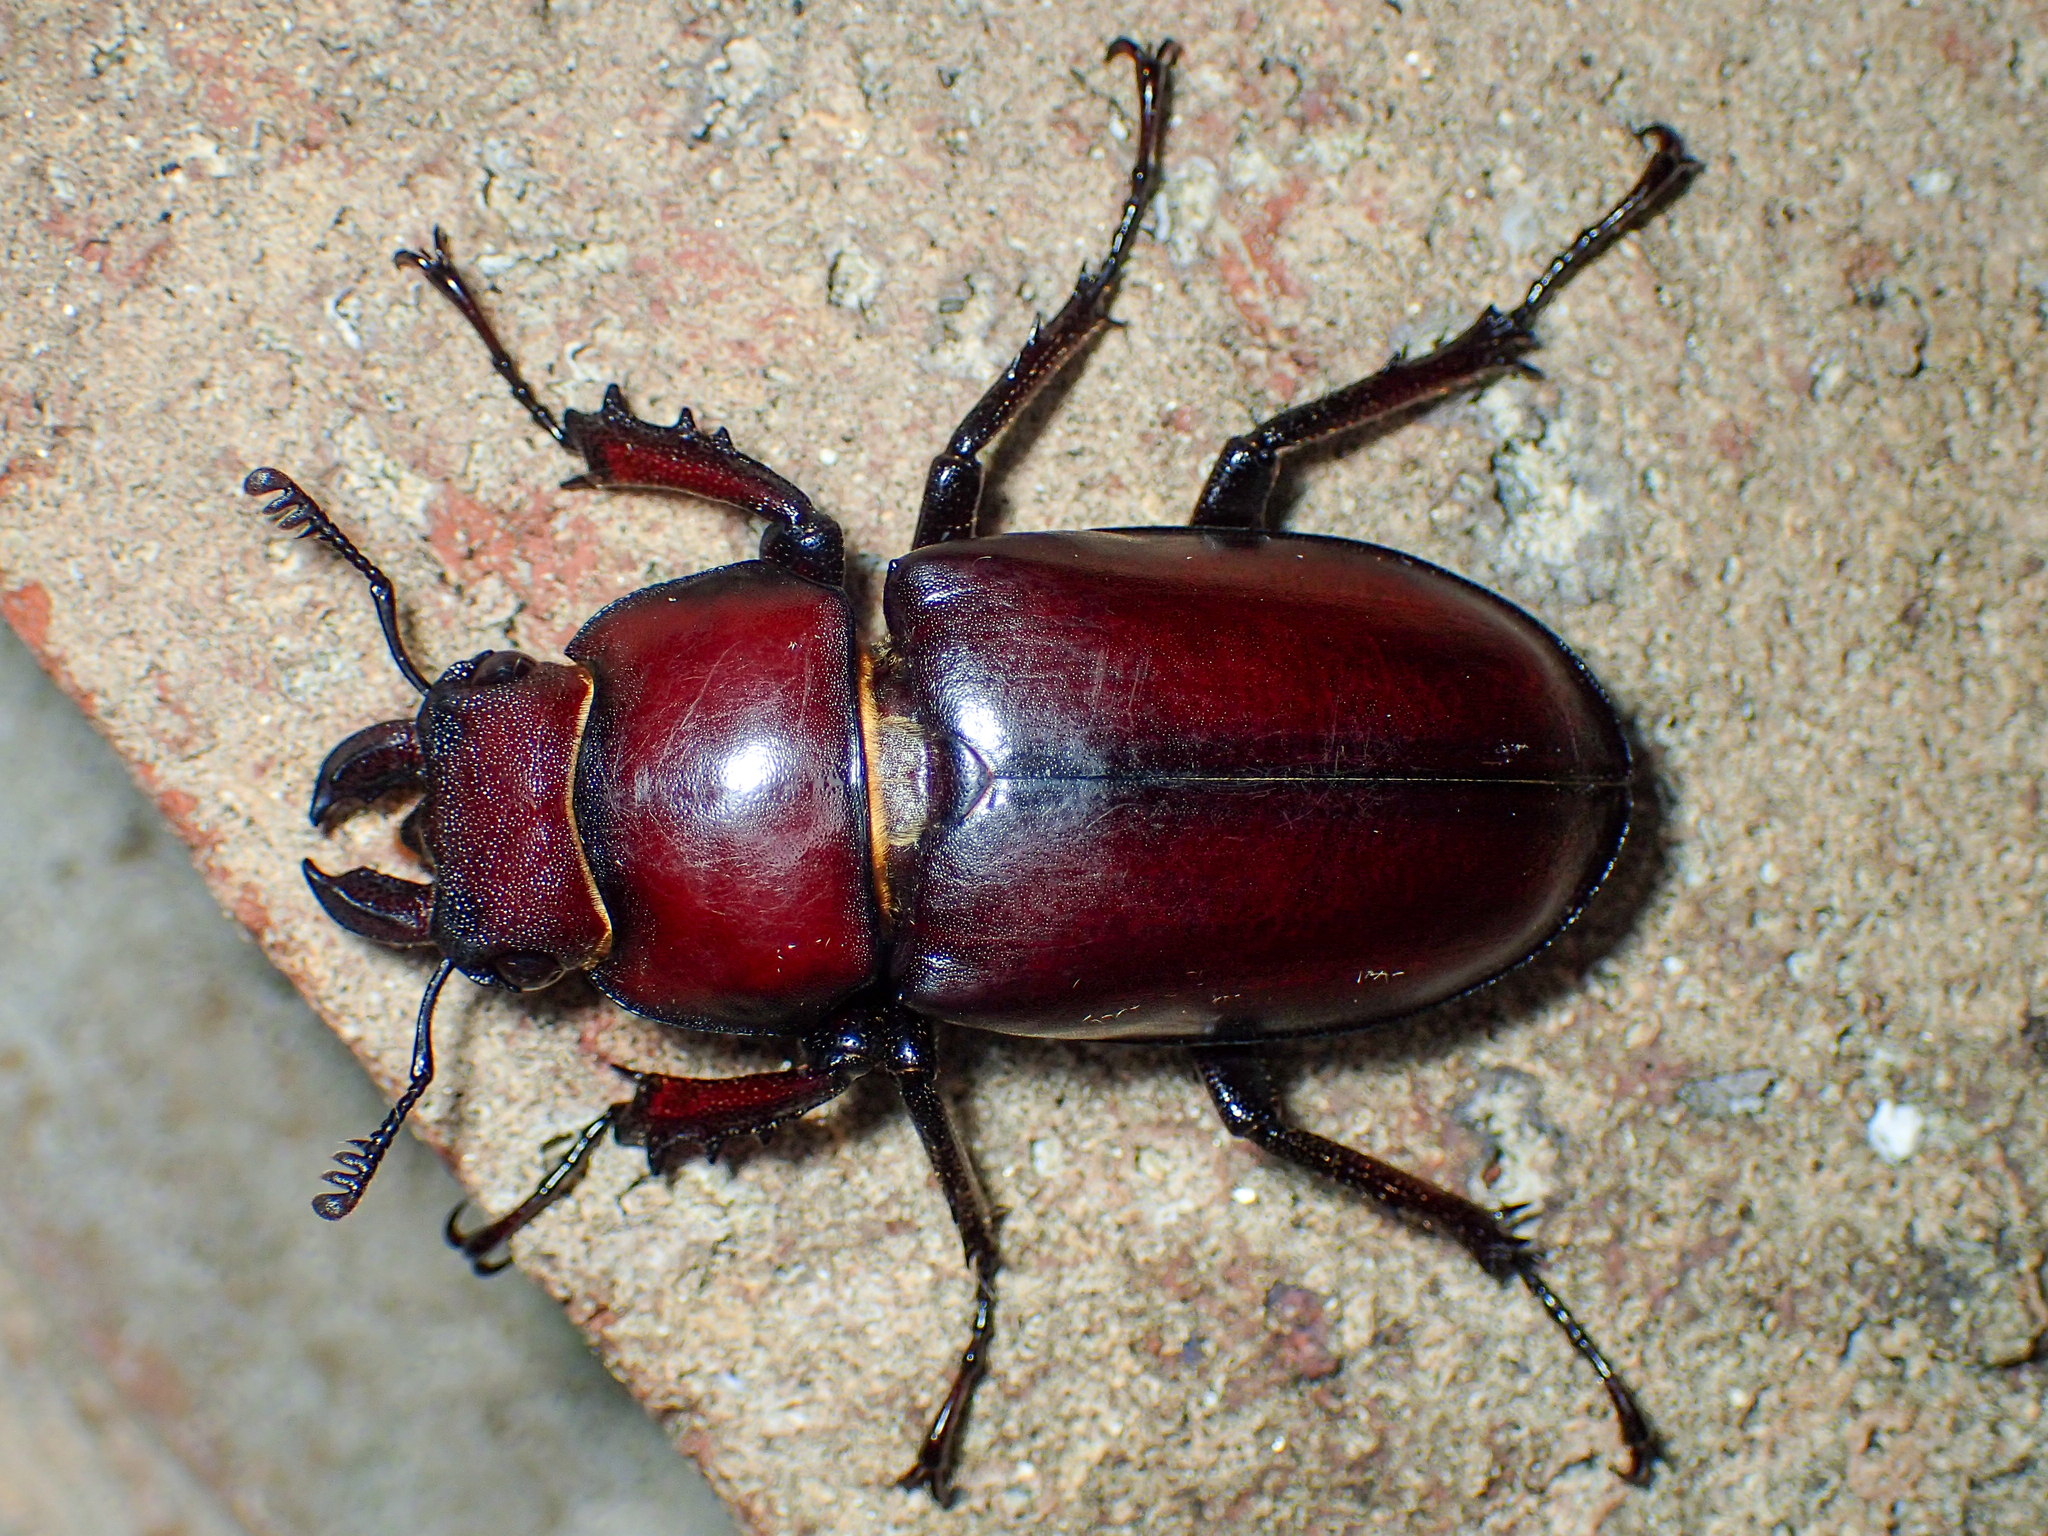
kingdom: Animalia
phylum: Arthropoda
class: Insecta
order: Coleoptera
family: Lucanidae
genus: Lucanus
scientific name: Lucanus elaphus
